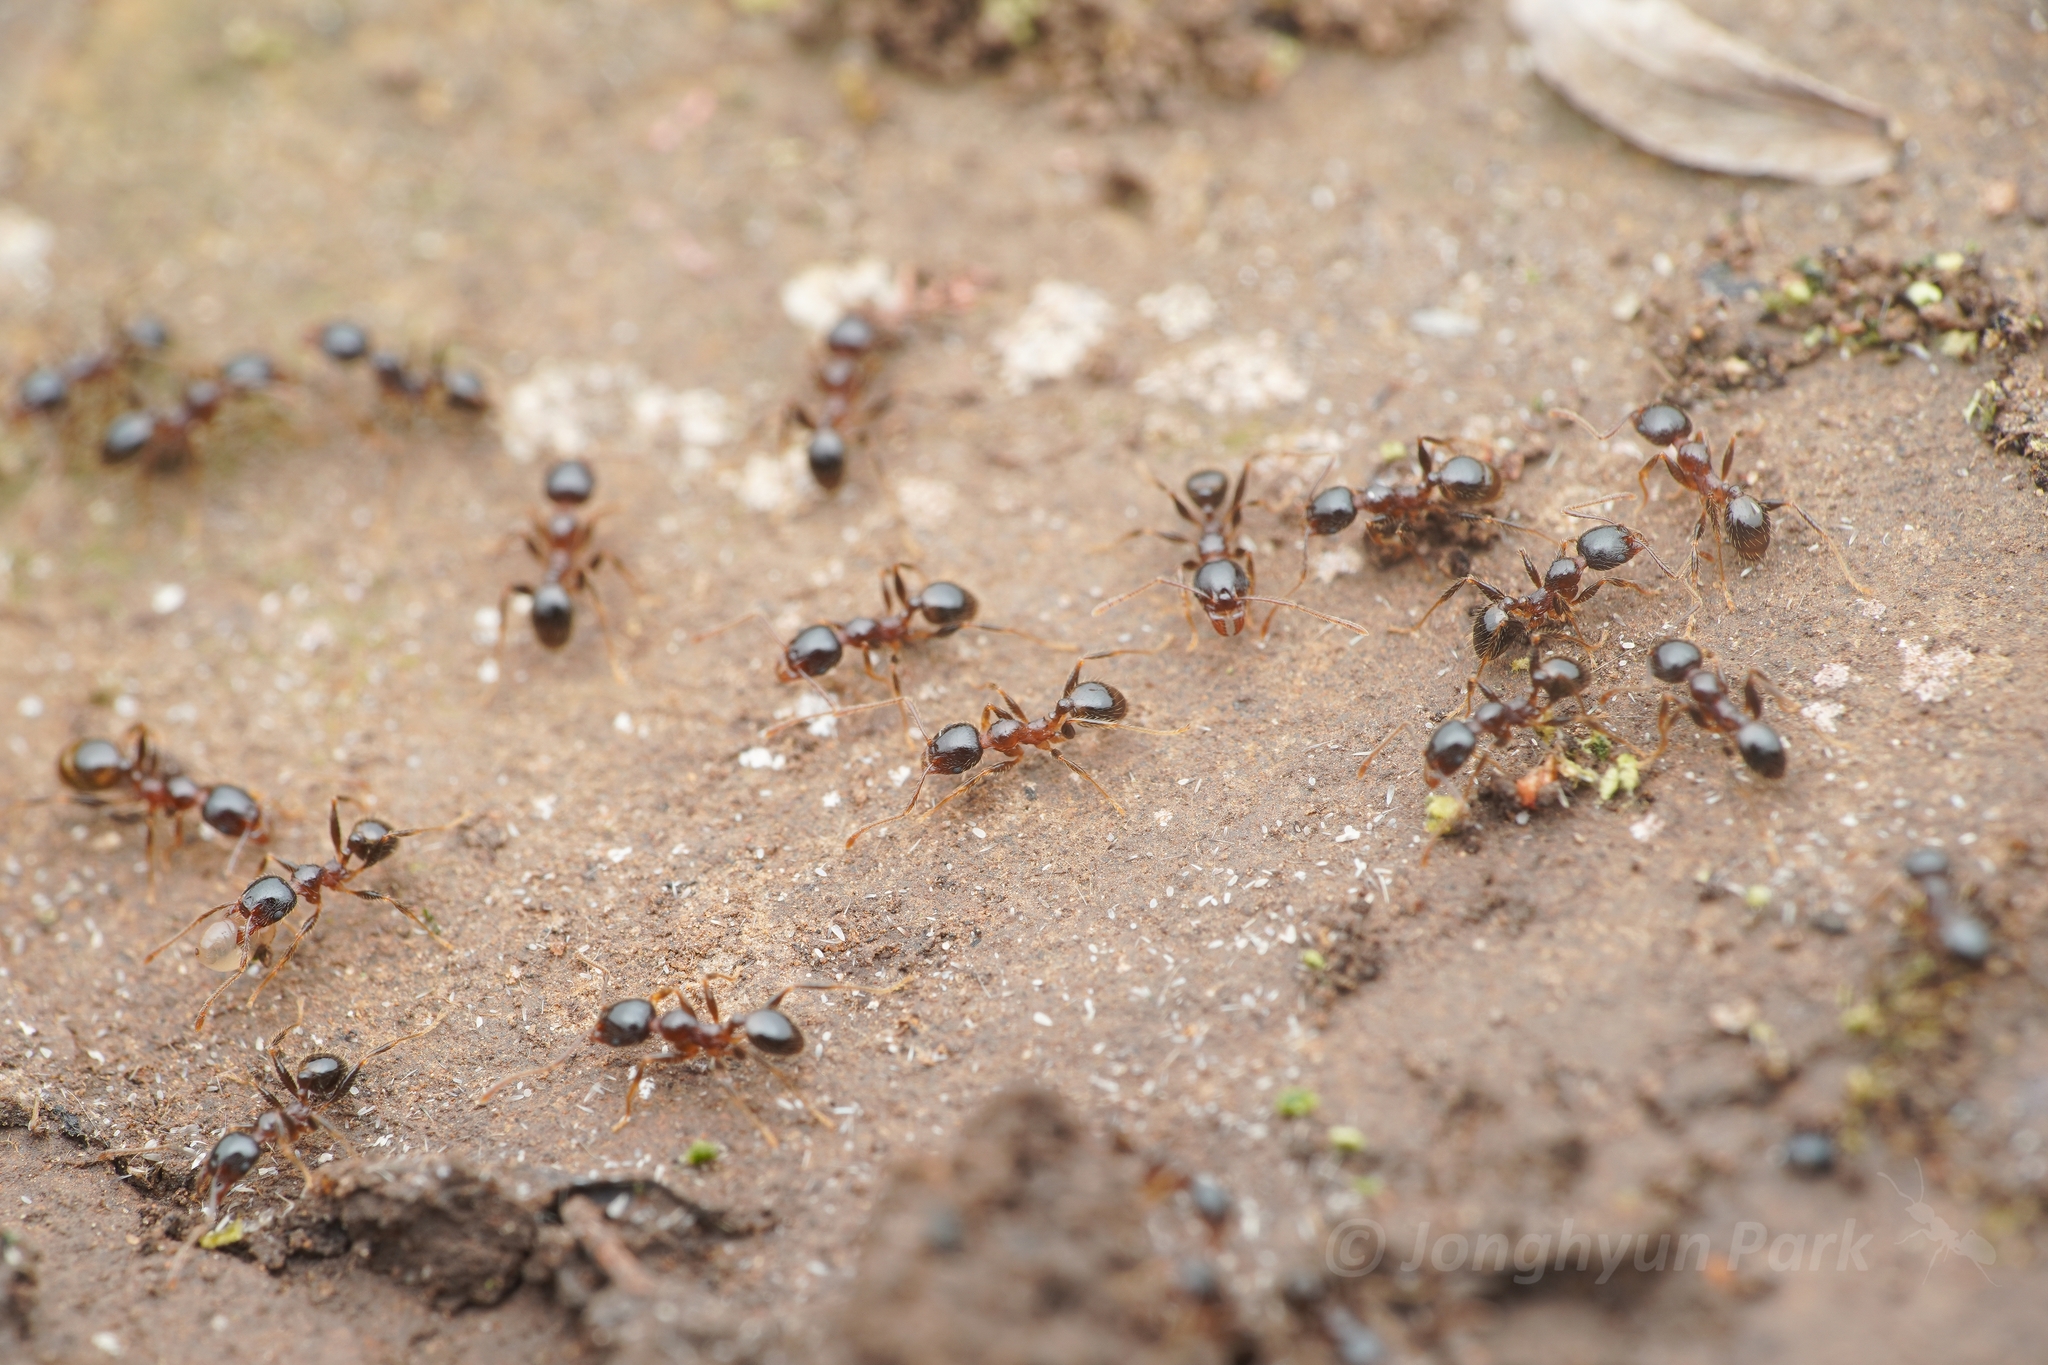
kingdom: Animalia
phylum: Arthropoda
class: Insecta
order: Hymenoptera
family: Formicidae
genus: Pheidole
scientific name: Pheidole megacephala
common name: Bigheaded ant
